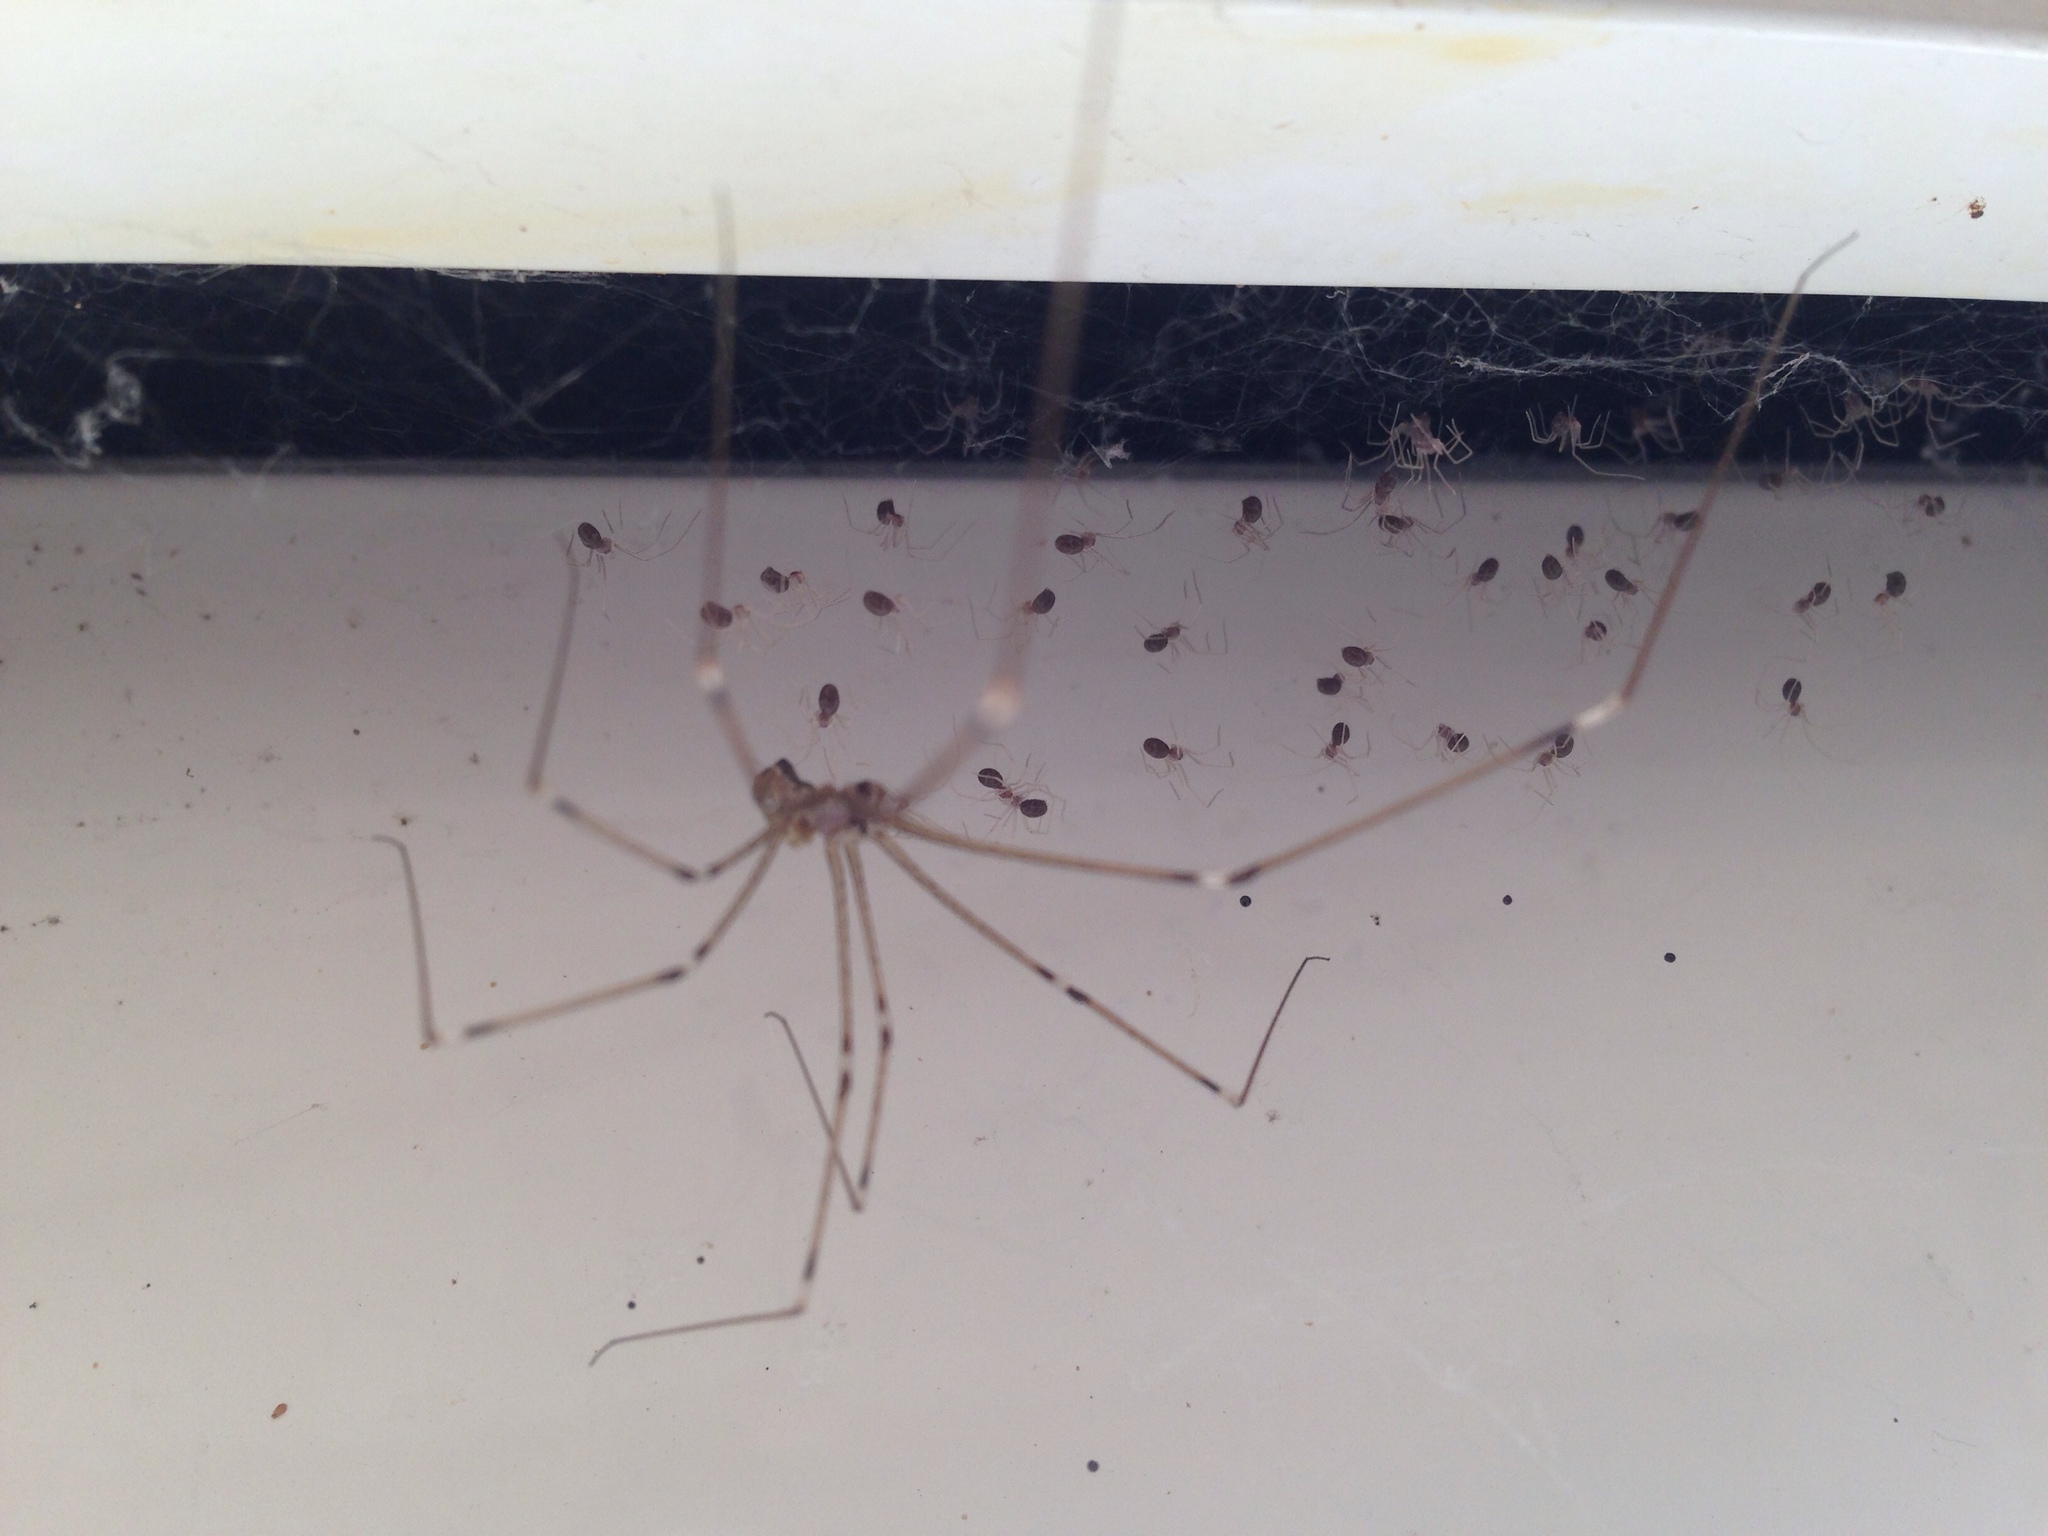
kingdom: Animalia
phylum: Arthropoda
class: Arachnida
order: Araneae
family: Pholcidae
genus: Holocnemus
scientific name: Holocnemus pluchei
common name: Marbled cellar spider
